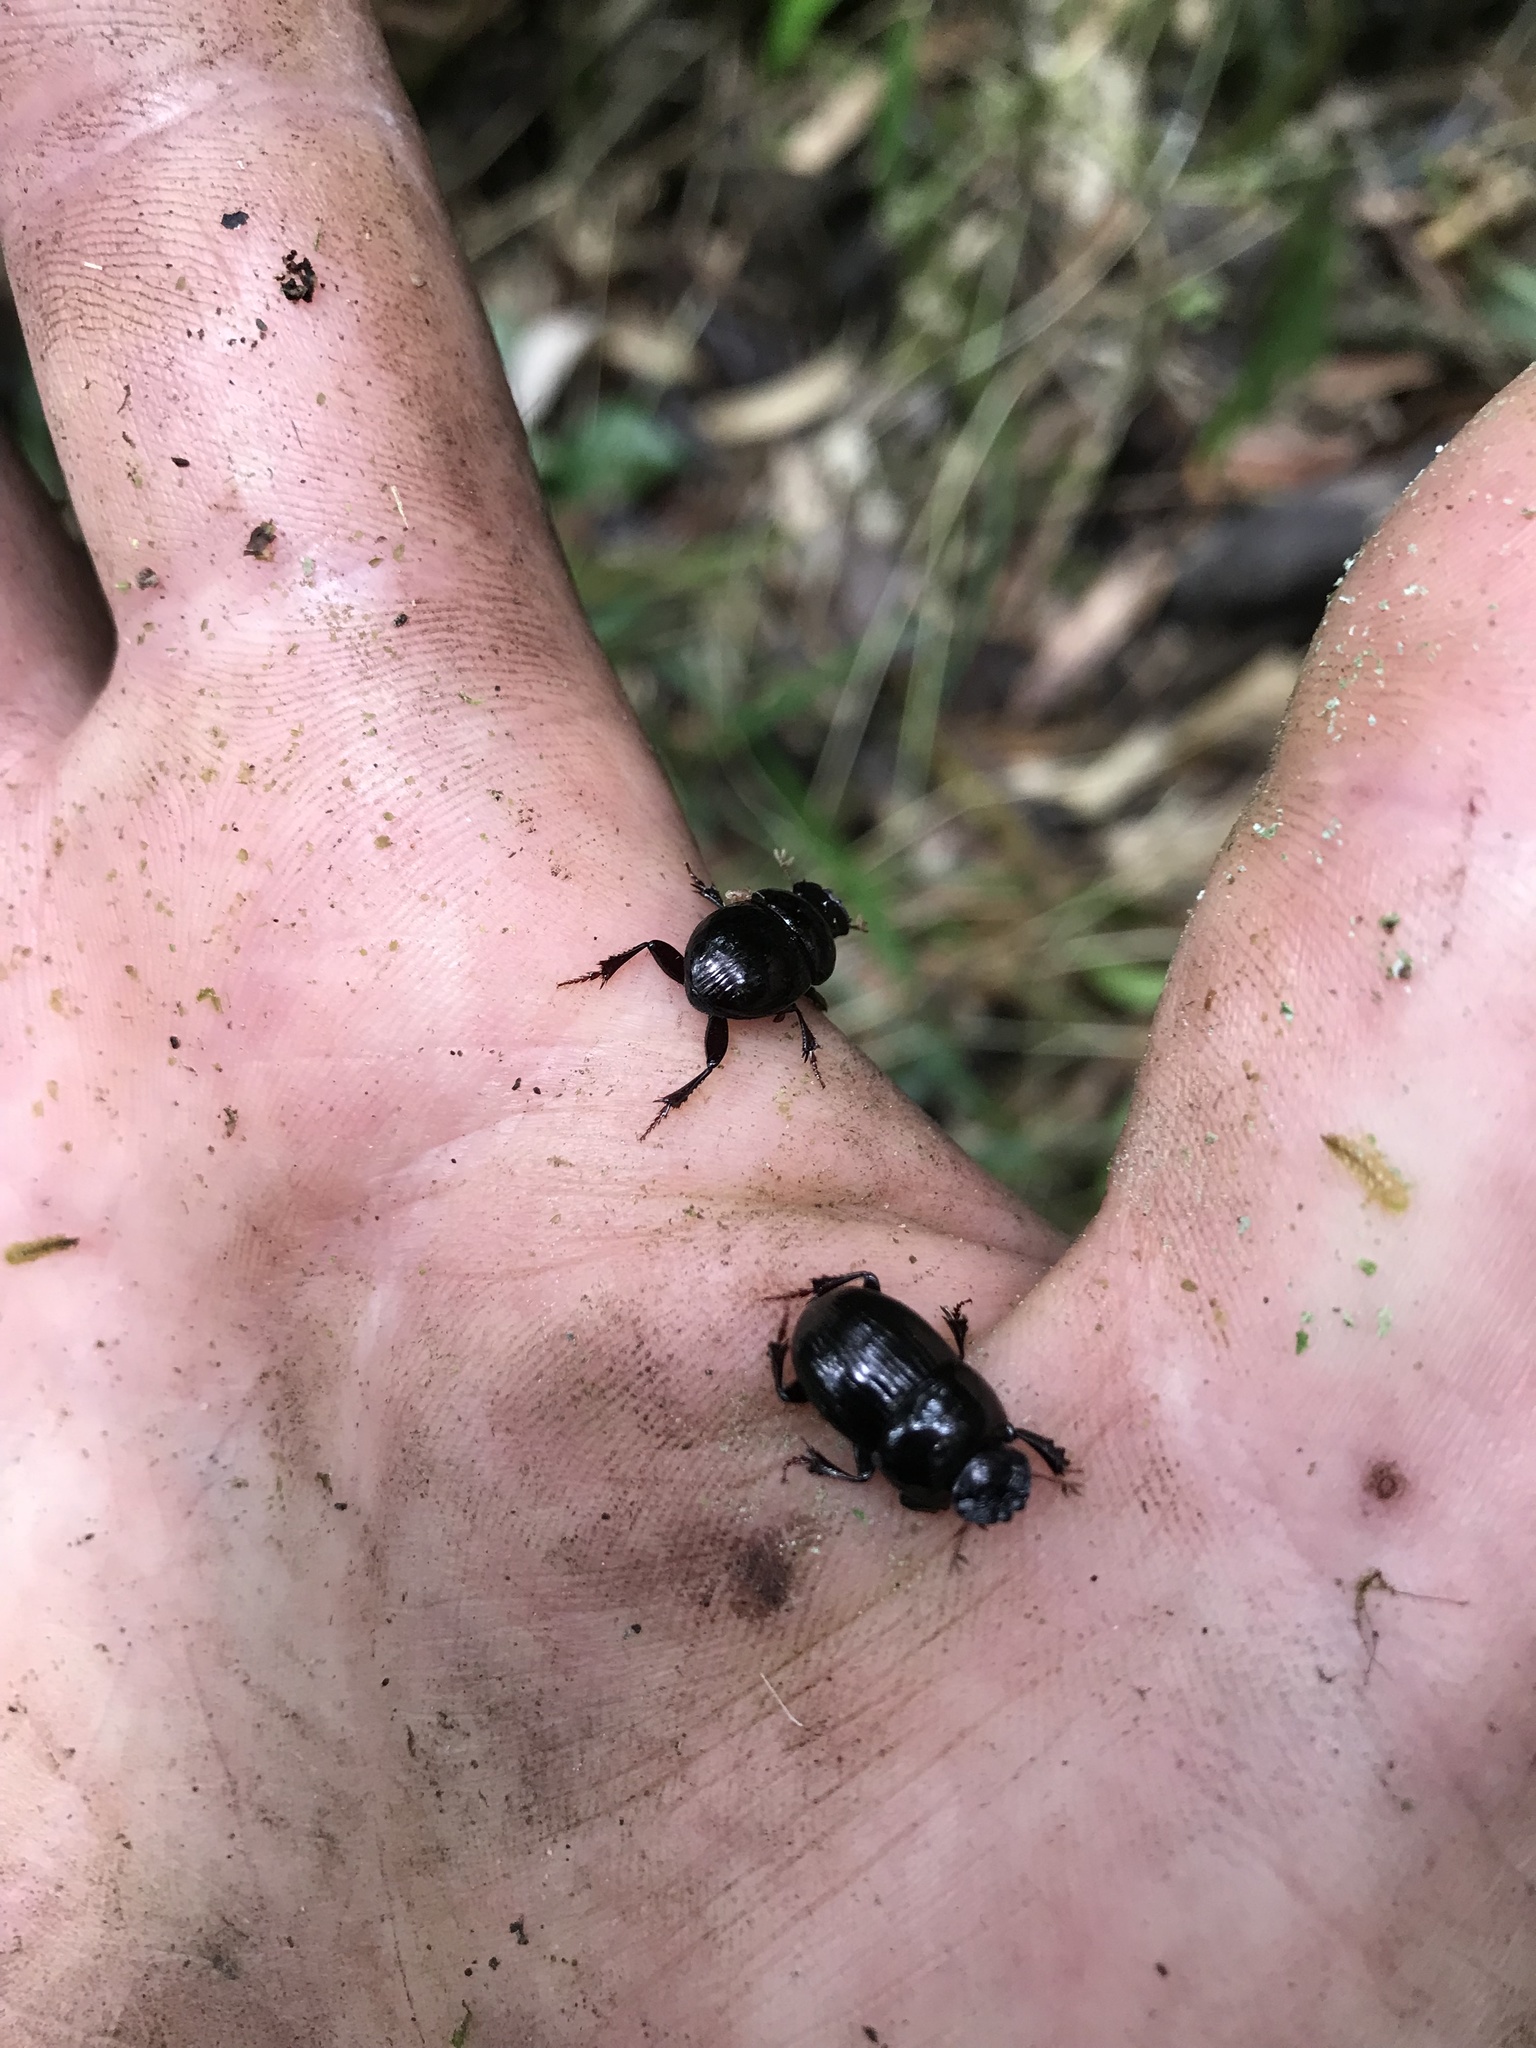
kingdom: Animalia
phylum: Arthropoda
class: Insecta
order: Coleoptera
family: Scarabaeidae
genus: Uroxys
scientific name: Uroxys coarctatus
